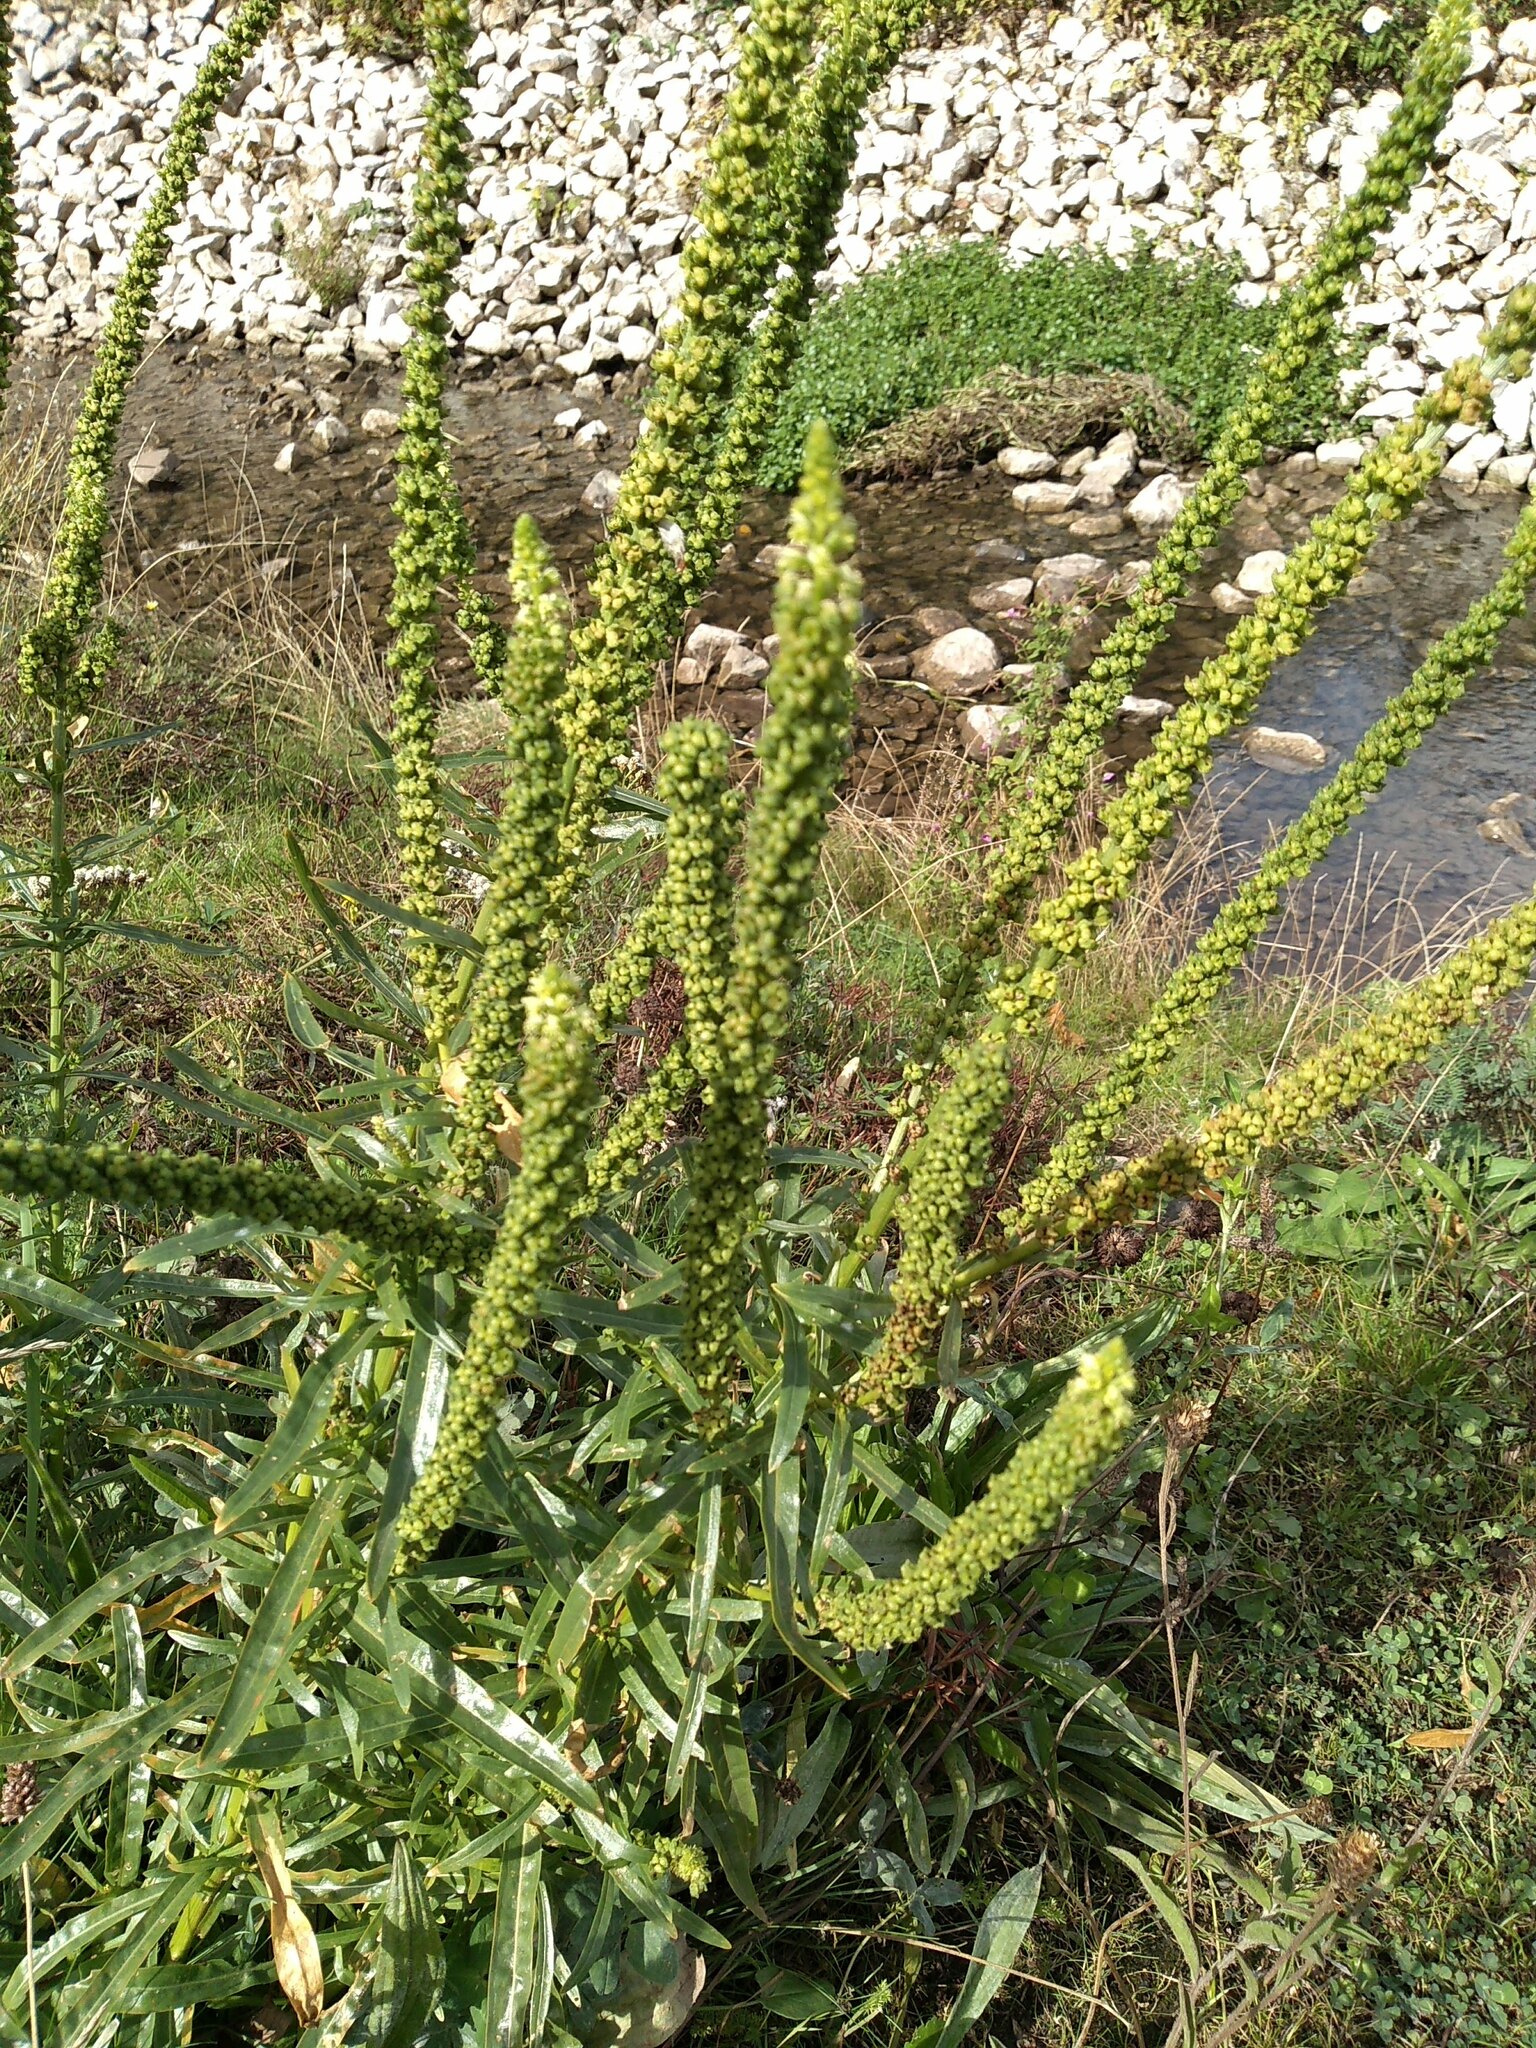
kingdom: Plantae
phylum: Tracheophyta
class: Magnoliopsida
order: Brassicales
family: Resedaceae
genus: Reseda
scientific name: Reseda luteola
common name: Weld
